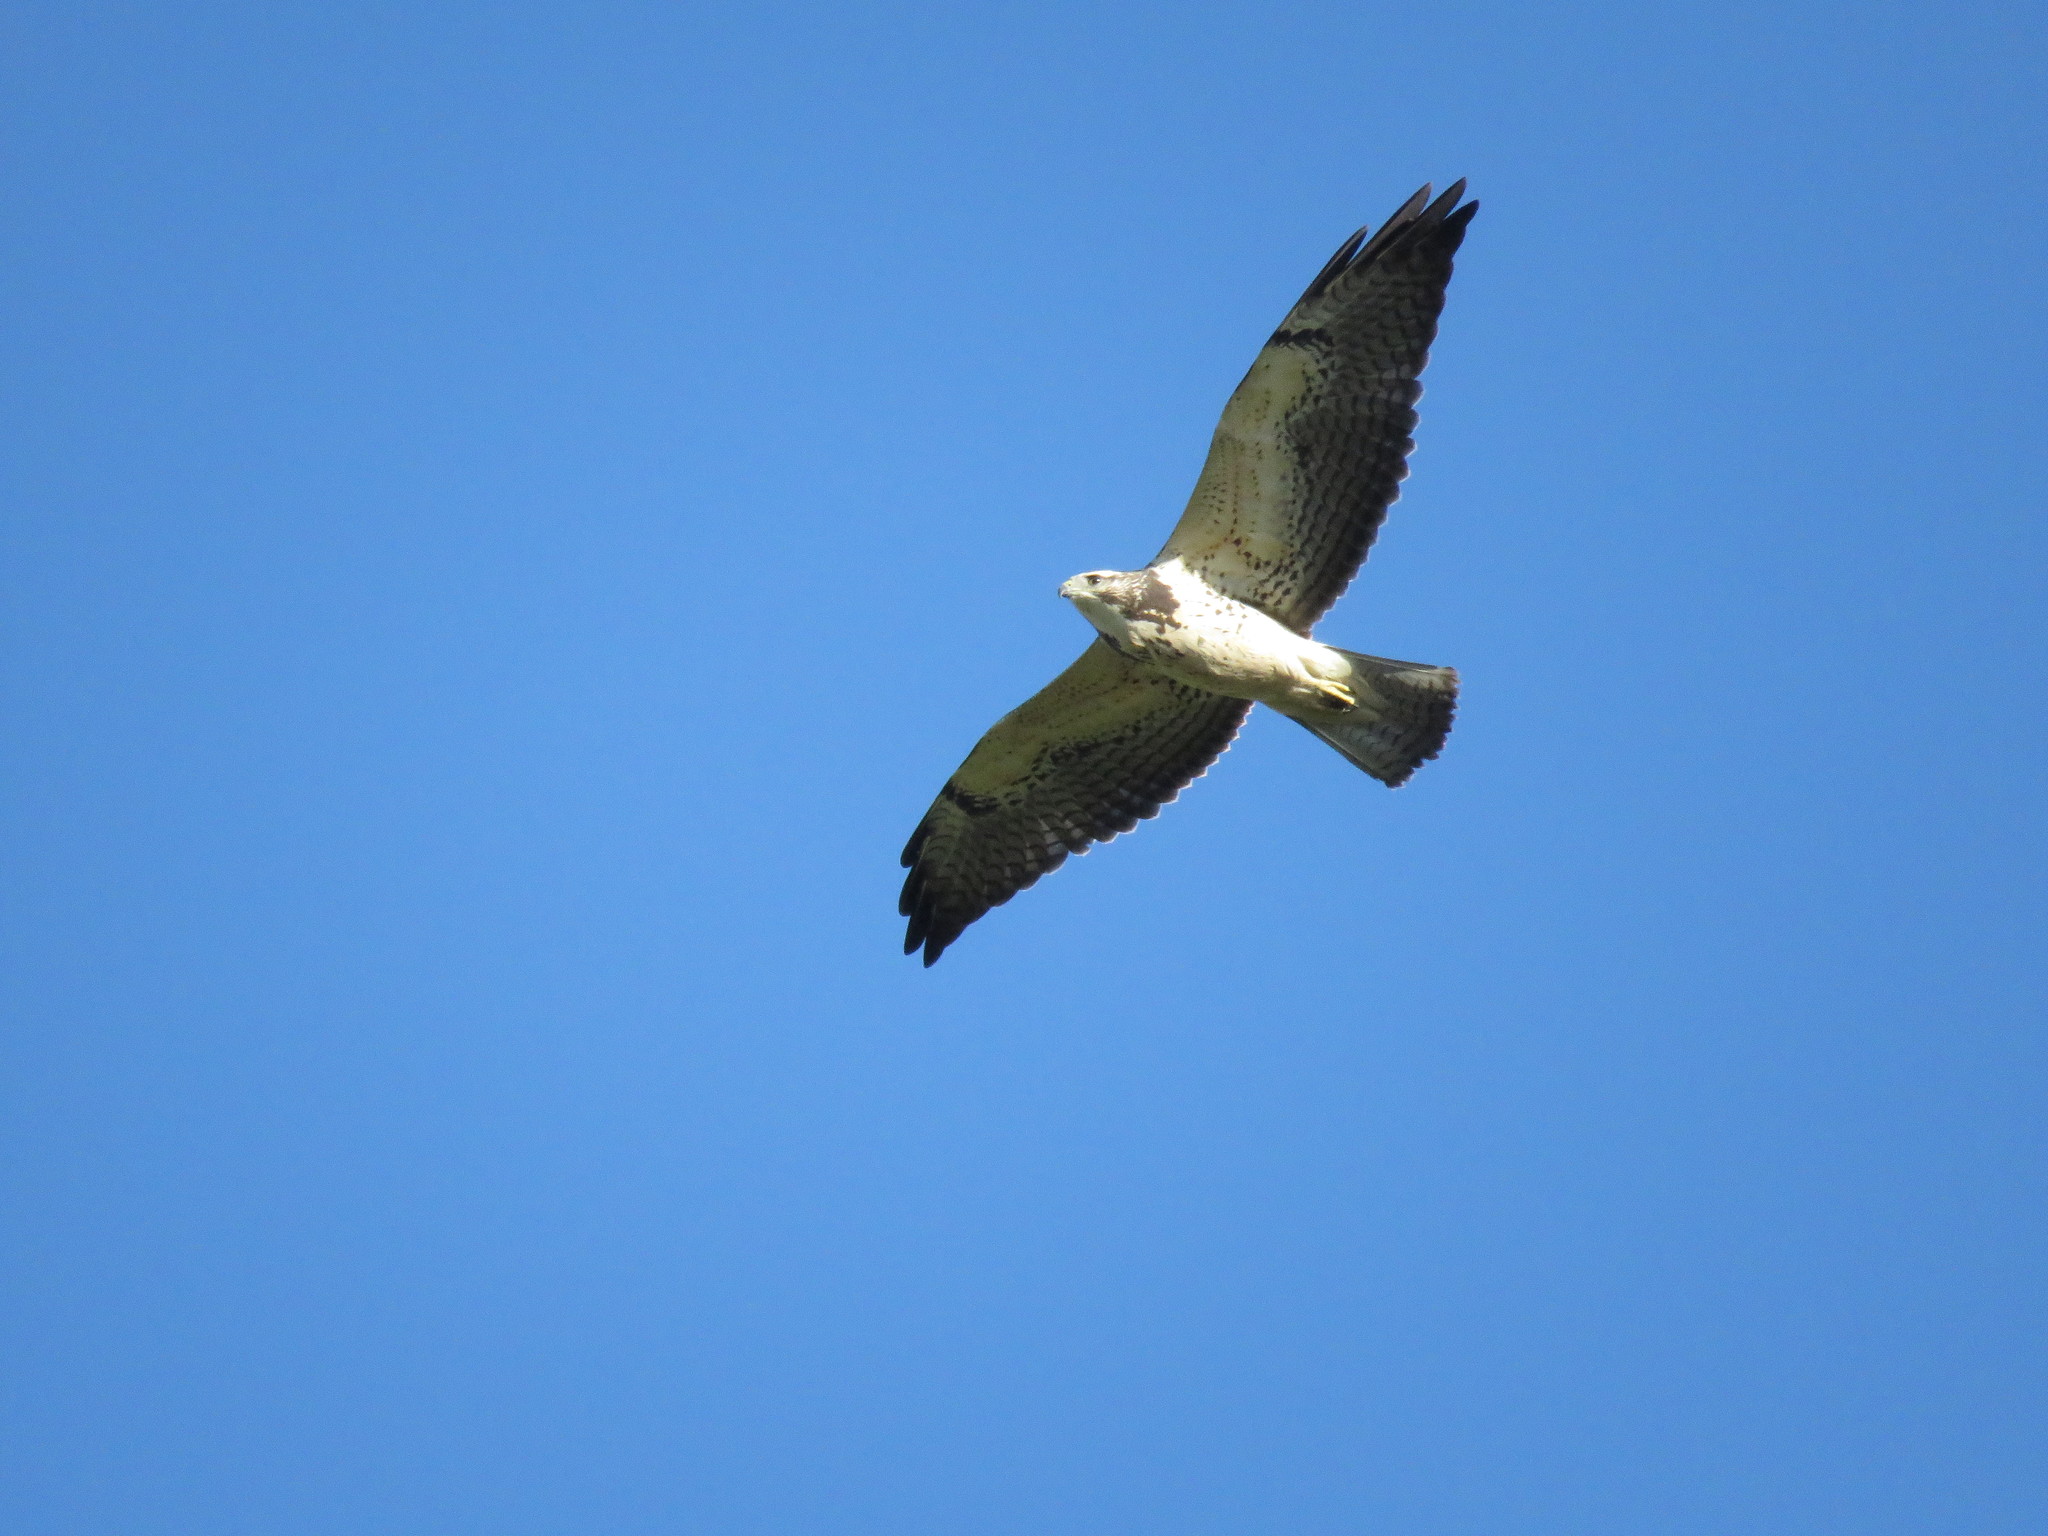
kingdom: Animalia
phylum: Chordata
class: Aves
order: Accipitriformes
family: Accipitridae
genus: Buteo
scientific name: Buteo swainsoni
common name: Swainson's hawk
